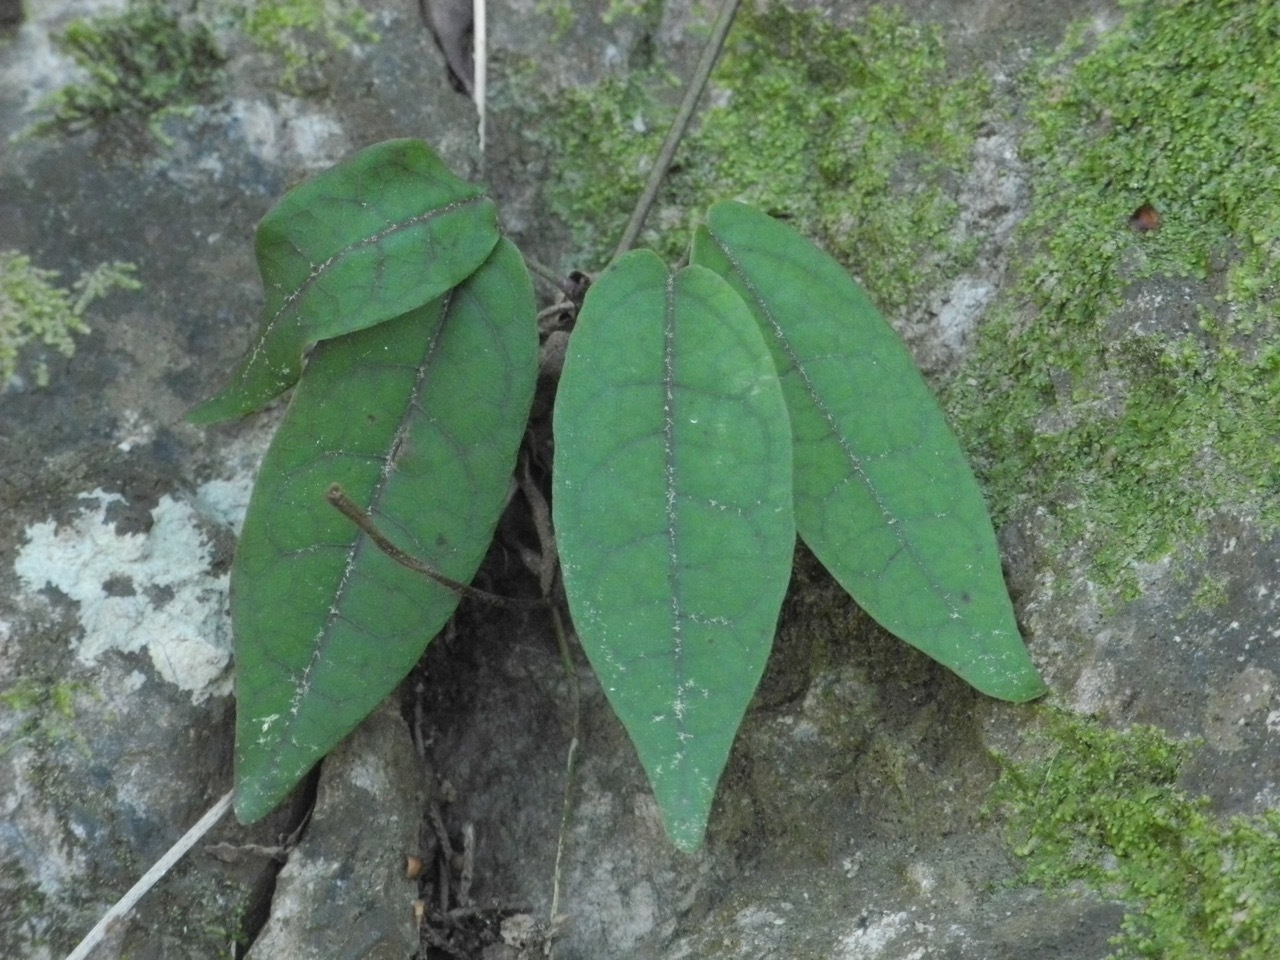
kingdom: Plantae
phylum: Tracheophyta
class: Magnoliopsida
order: Lamiales
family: Bignoniaceae
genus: Bignonia
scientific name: Bignonia capreolata
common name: Crossvine
